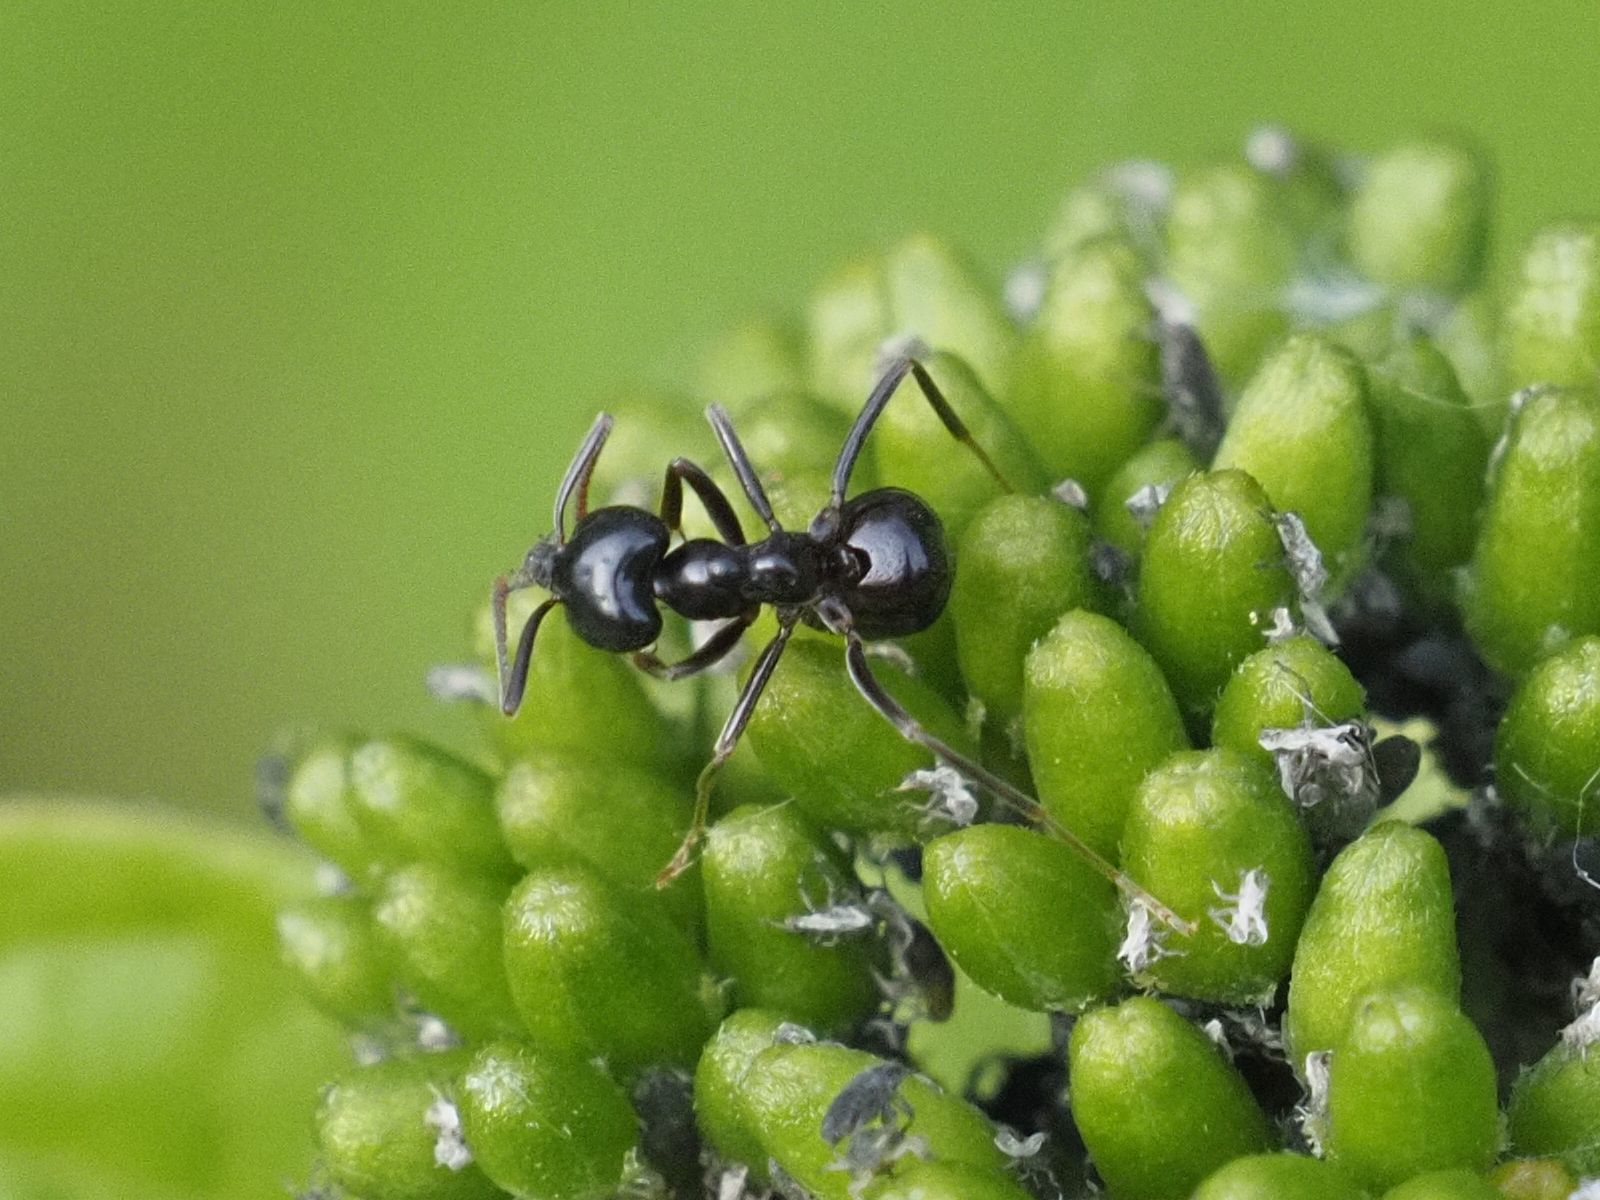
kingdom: Animalia
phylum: Arthropoda
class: Insecta
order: Hymenoptera
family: Formicidae
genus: Lasius
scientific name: Lasius fuliginosus
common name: Jet ant
